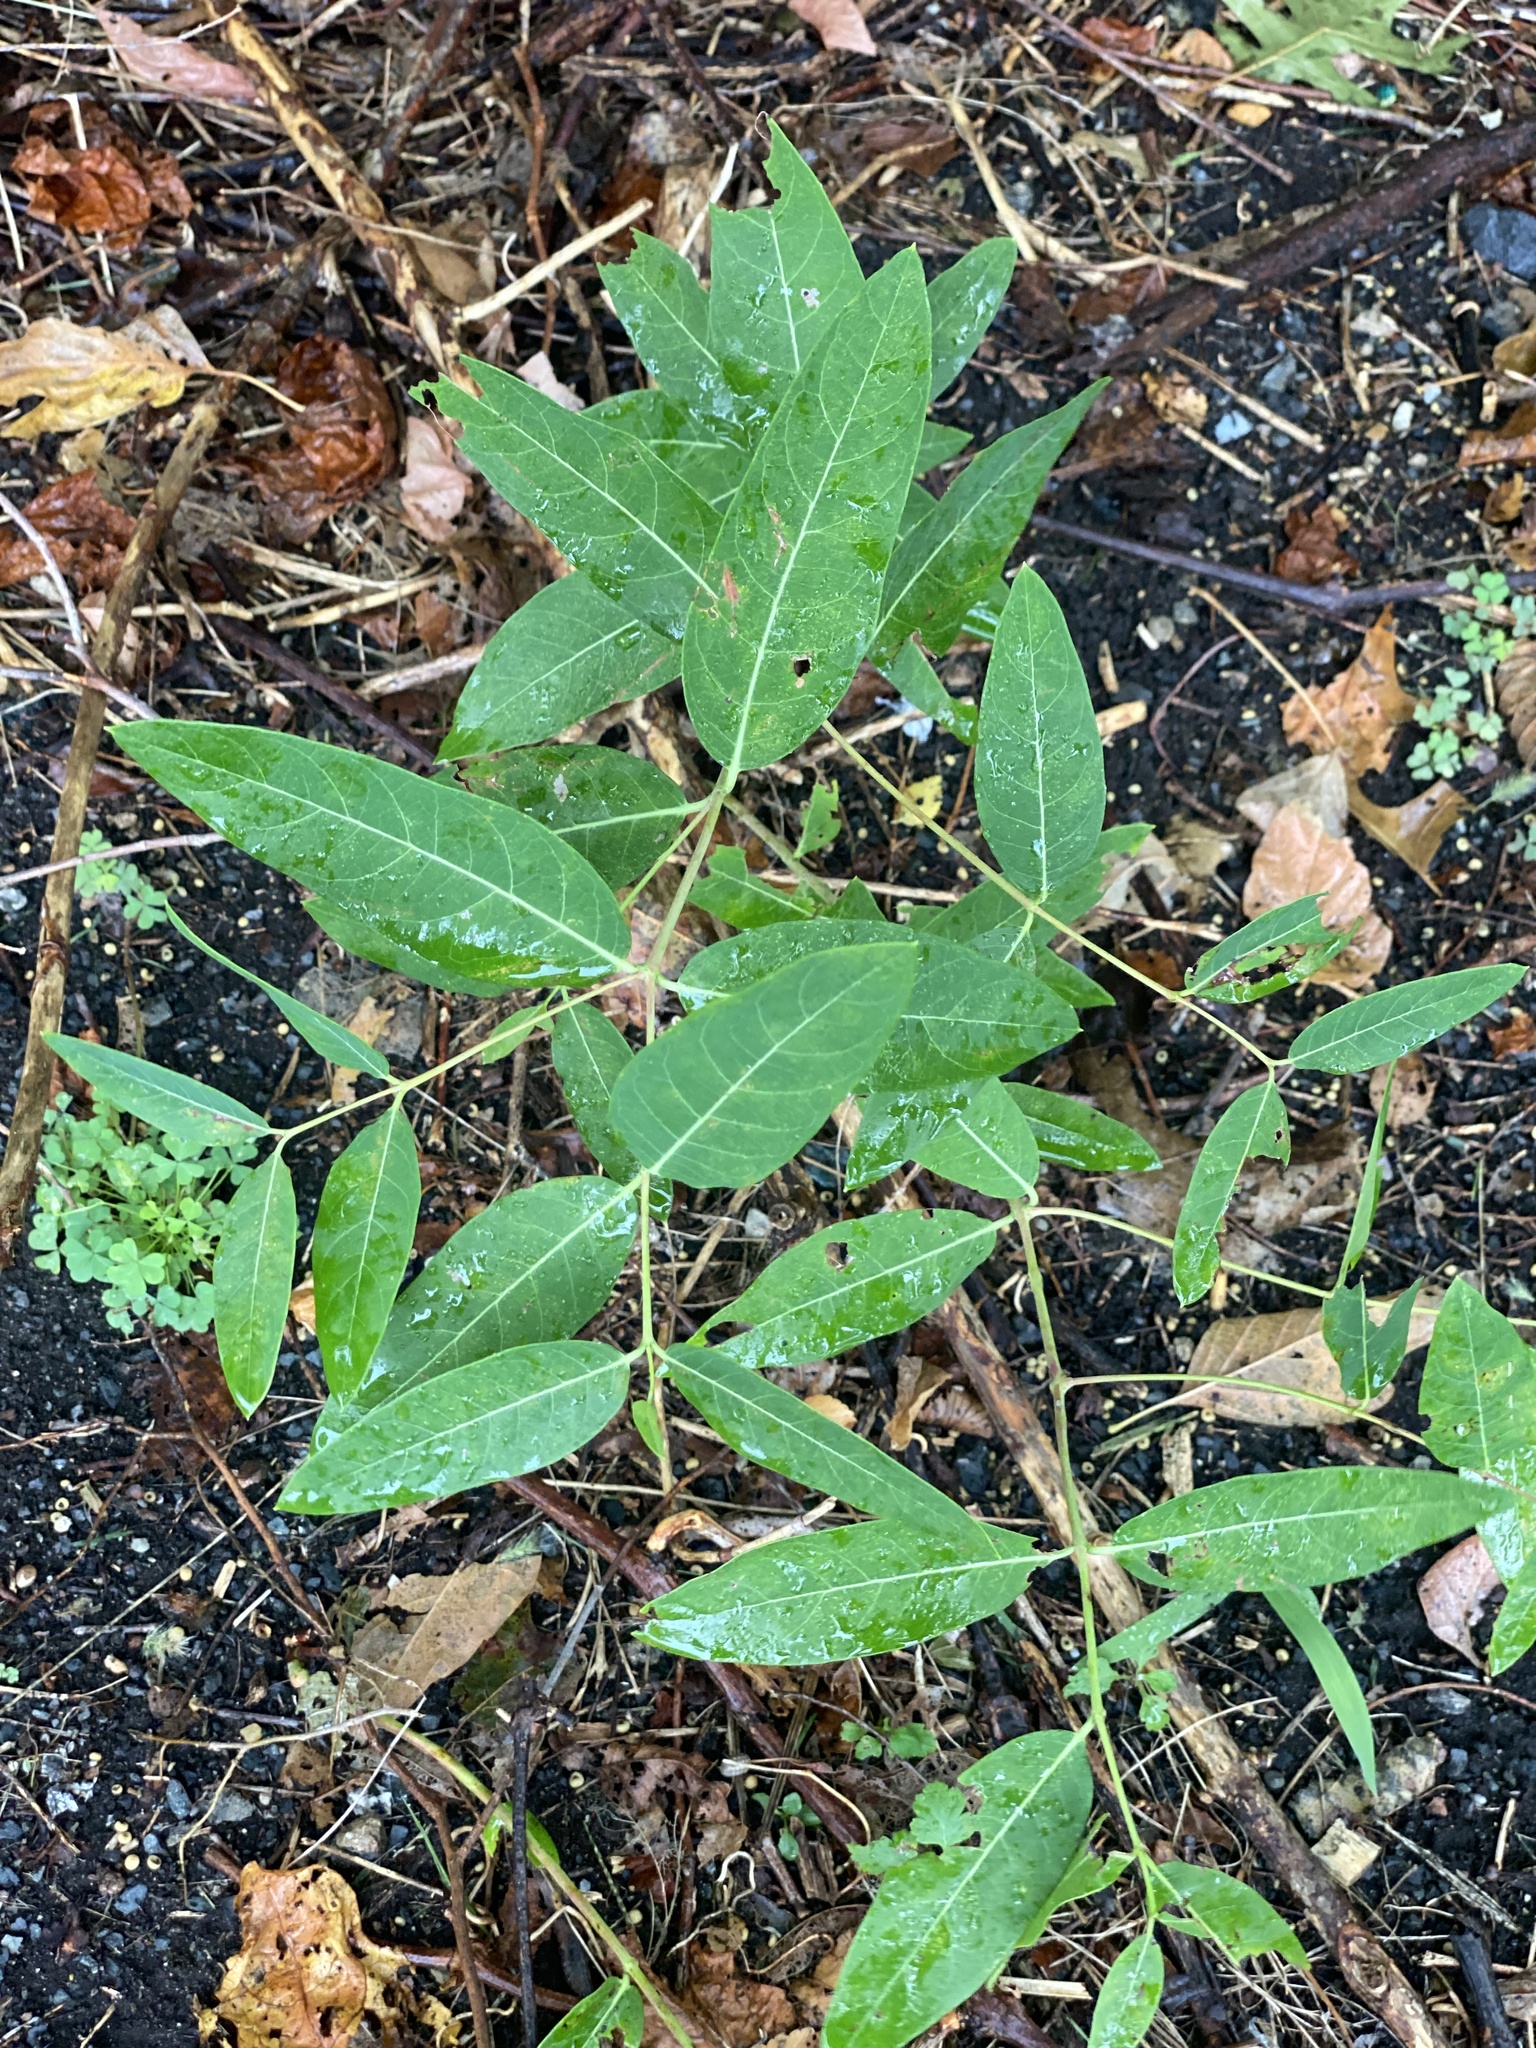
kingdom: Plantae
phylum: Tracheophyta
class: Magnoliopsida
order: Gentianales
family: Apocynaceae
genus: Apocynum
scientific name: Apocynum cannabinum
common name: Hemp dogbane
